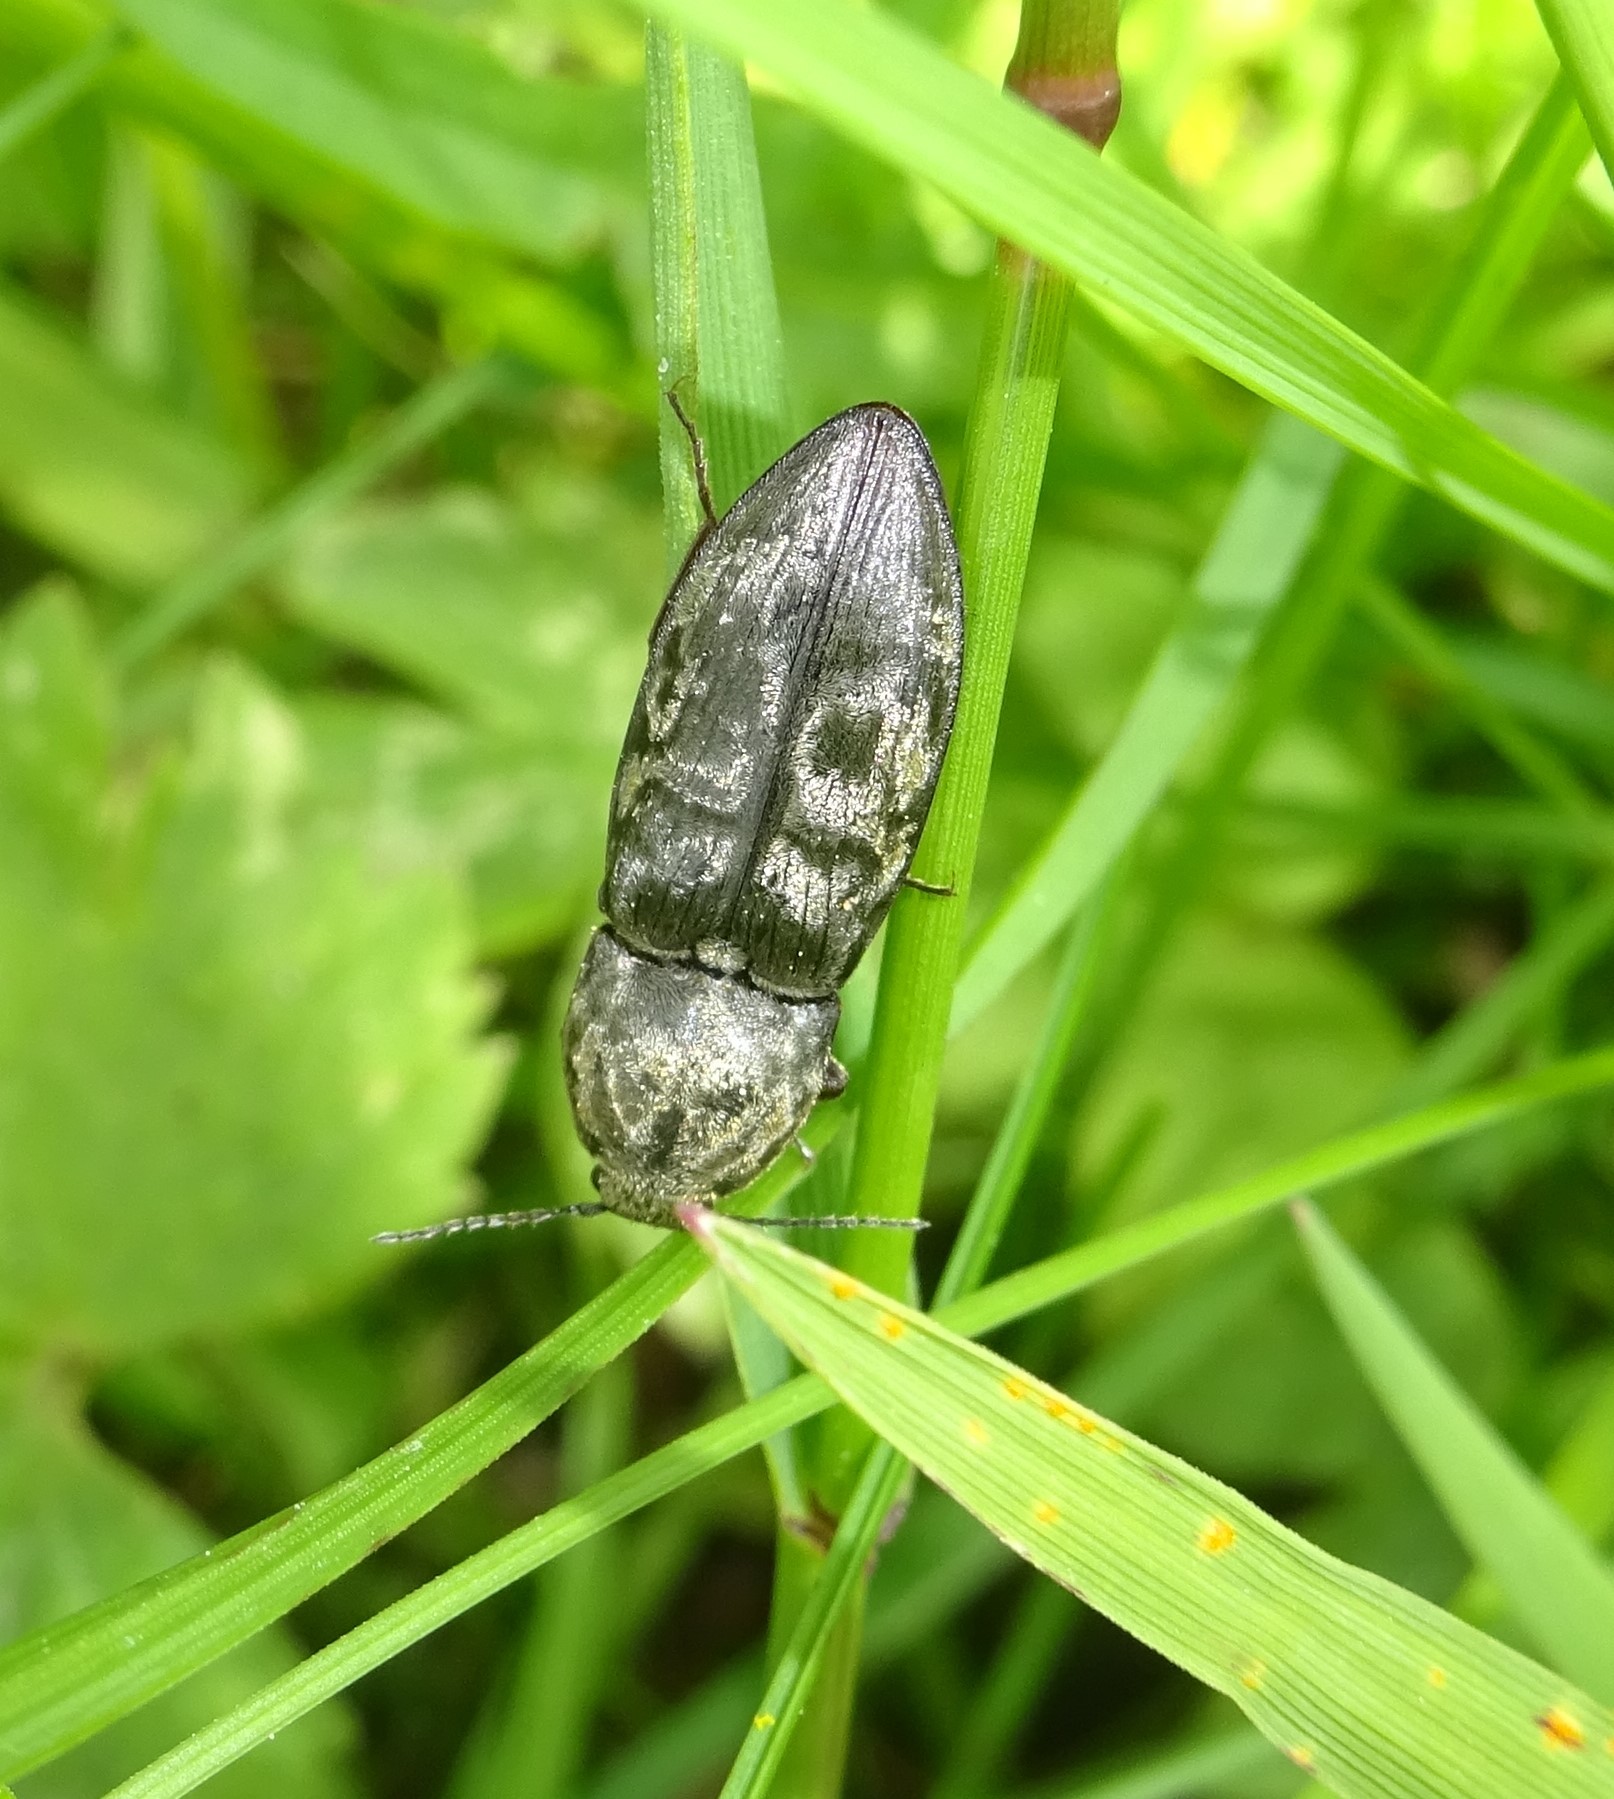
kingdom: Animalia
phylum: Arthropoda
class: Insecta
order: Coleoptera
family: Elateridae
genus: Prosternon
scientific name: Prosternon tessellatum
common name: Chequered click beetle
